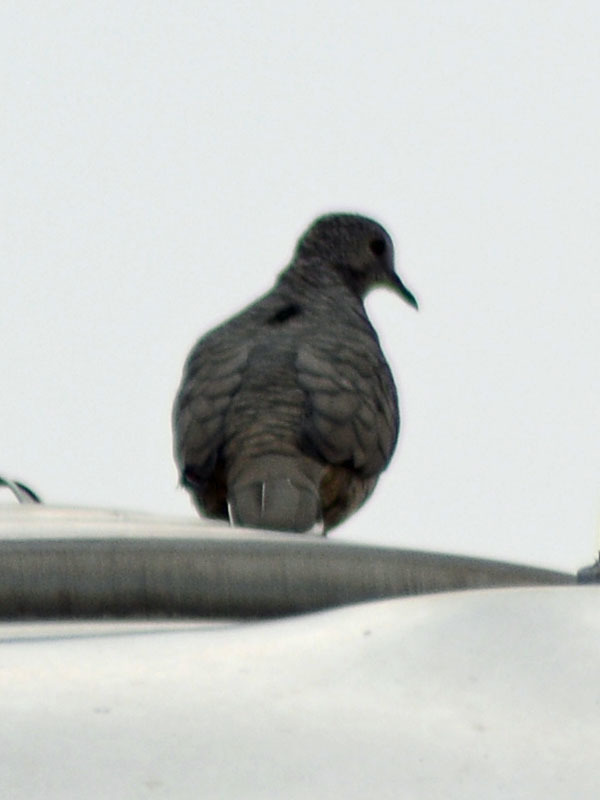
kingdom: Animalia
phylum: Chordata
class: Aves
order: Columbiformes
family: Columbidae
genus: Columbina
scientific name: Columbina inca
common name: Inca dove
